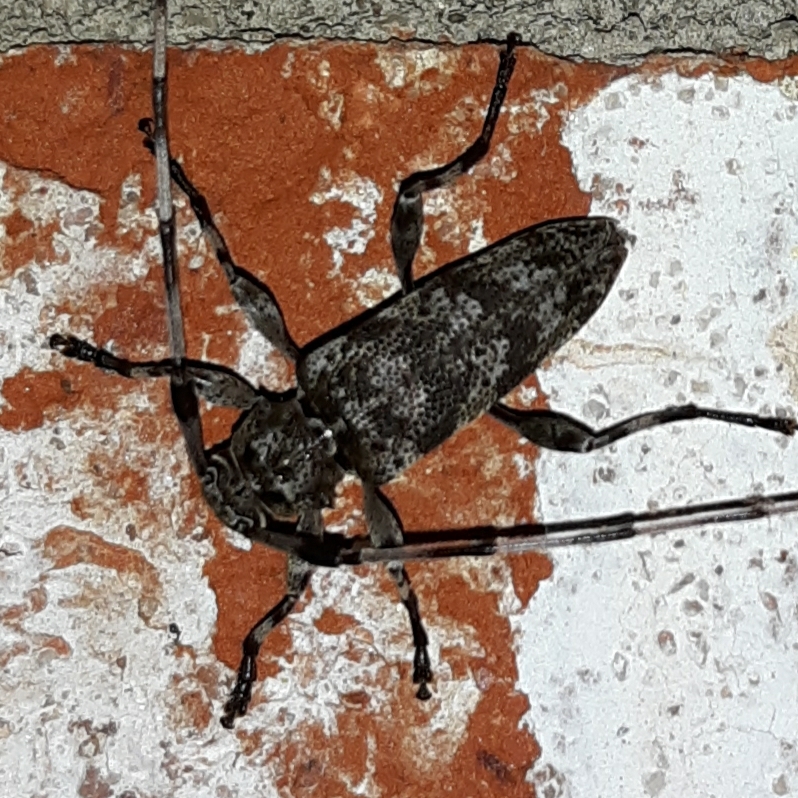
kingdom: Animalia
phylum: Arthropoda
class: Insecta
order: Coleoptera
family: Cerambycidae
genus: Acanthocinus
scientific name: Acanthocinus obsoletus
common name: Roundheaded borer
